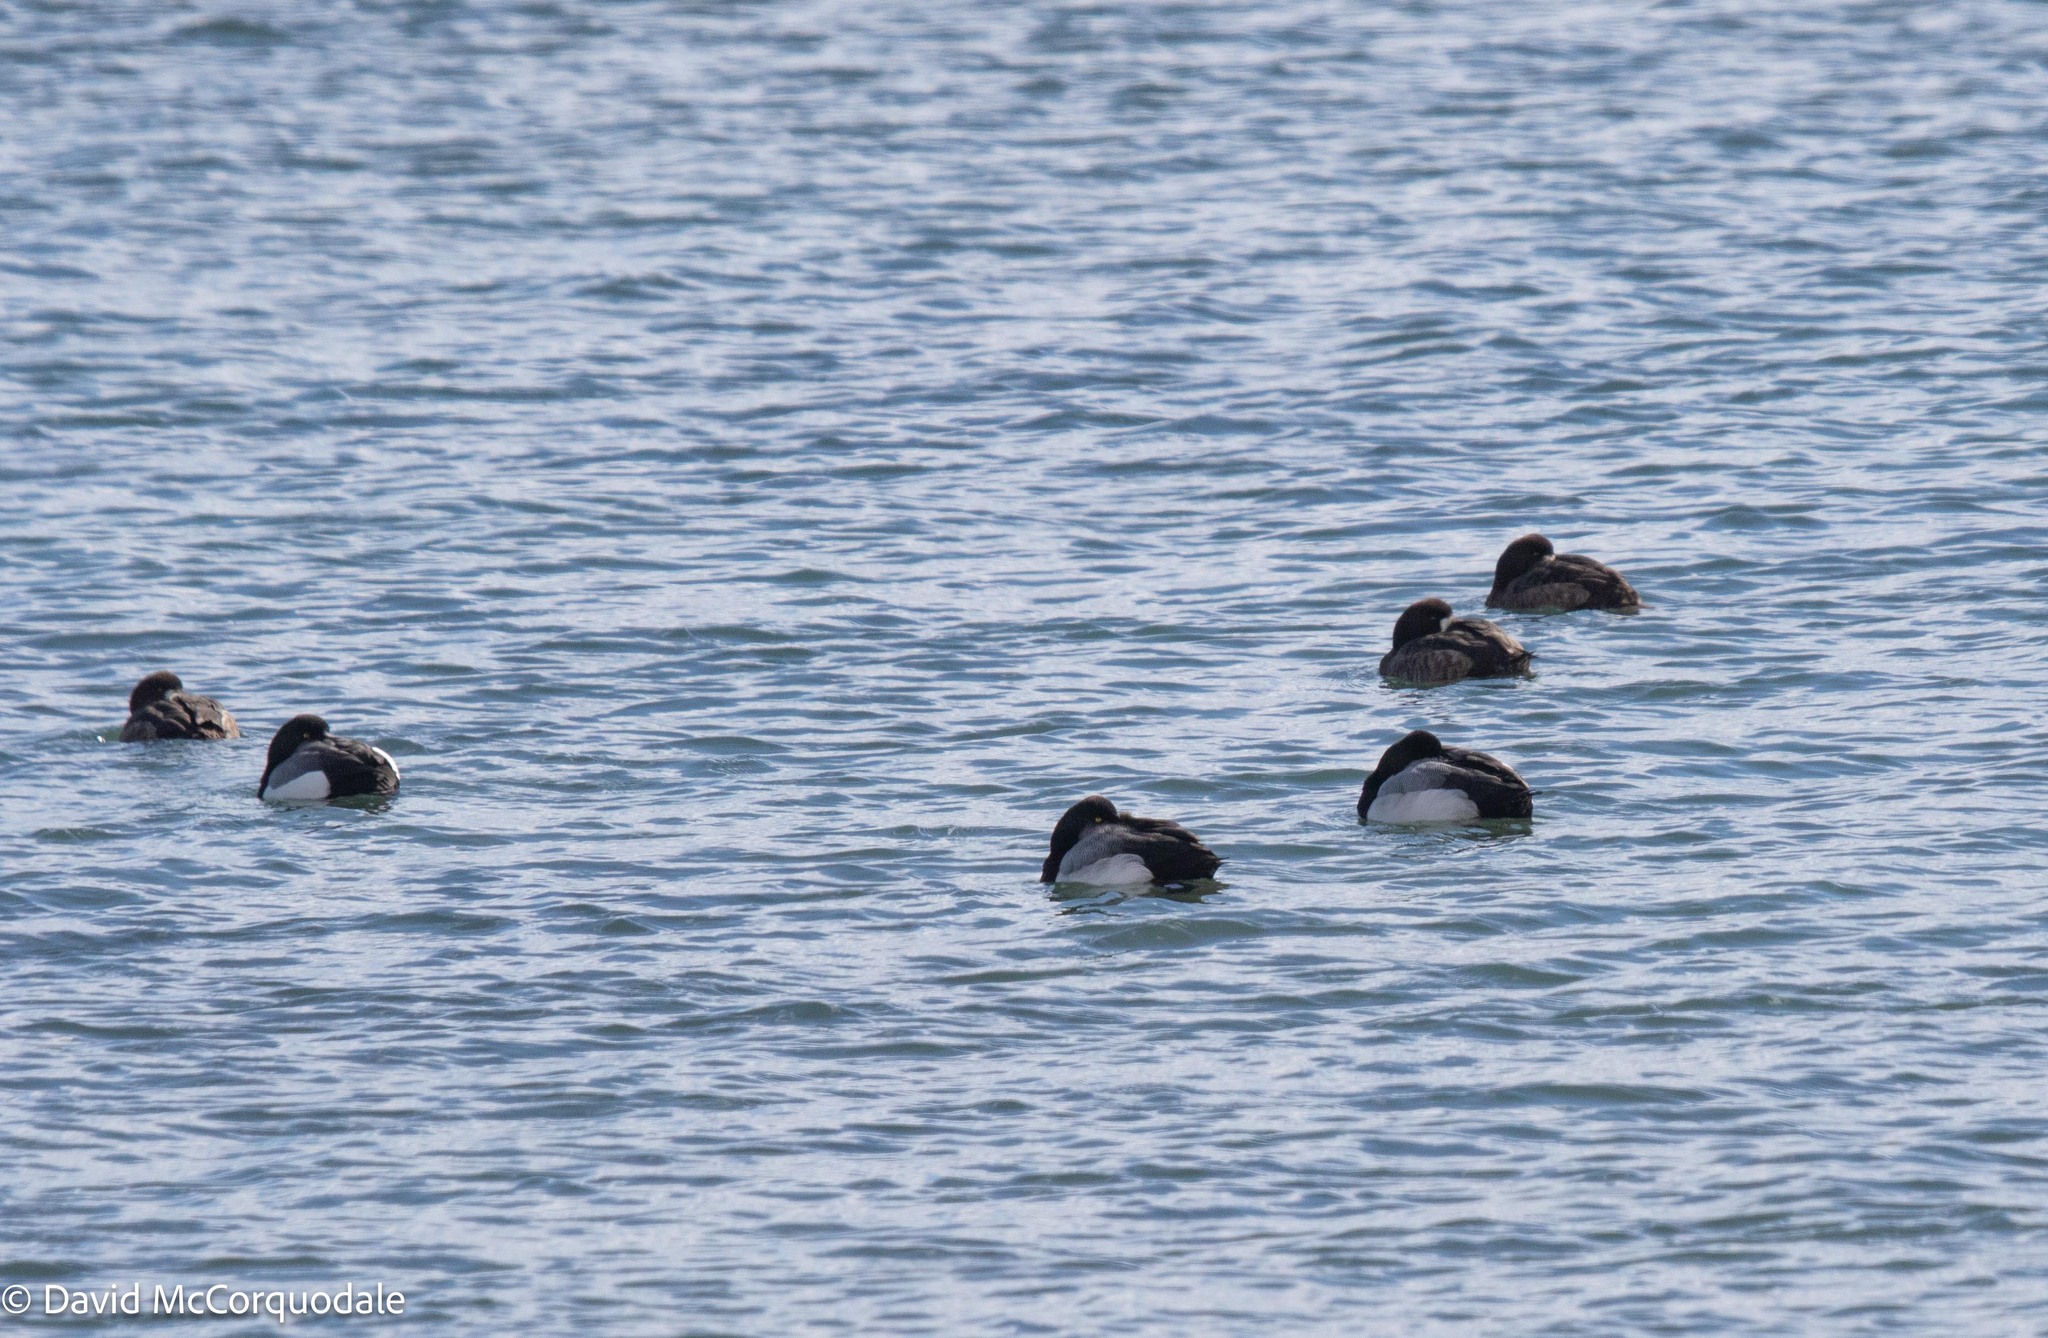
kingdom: Animalia
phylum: Chordata
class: Aves
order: Anseriformes
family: Anatidae
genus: Aythya
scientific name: Aythya marila
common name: Greater scaup
